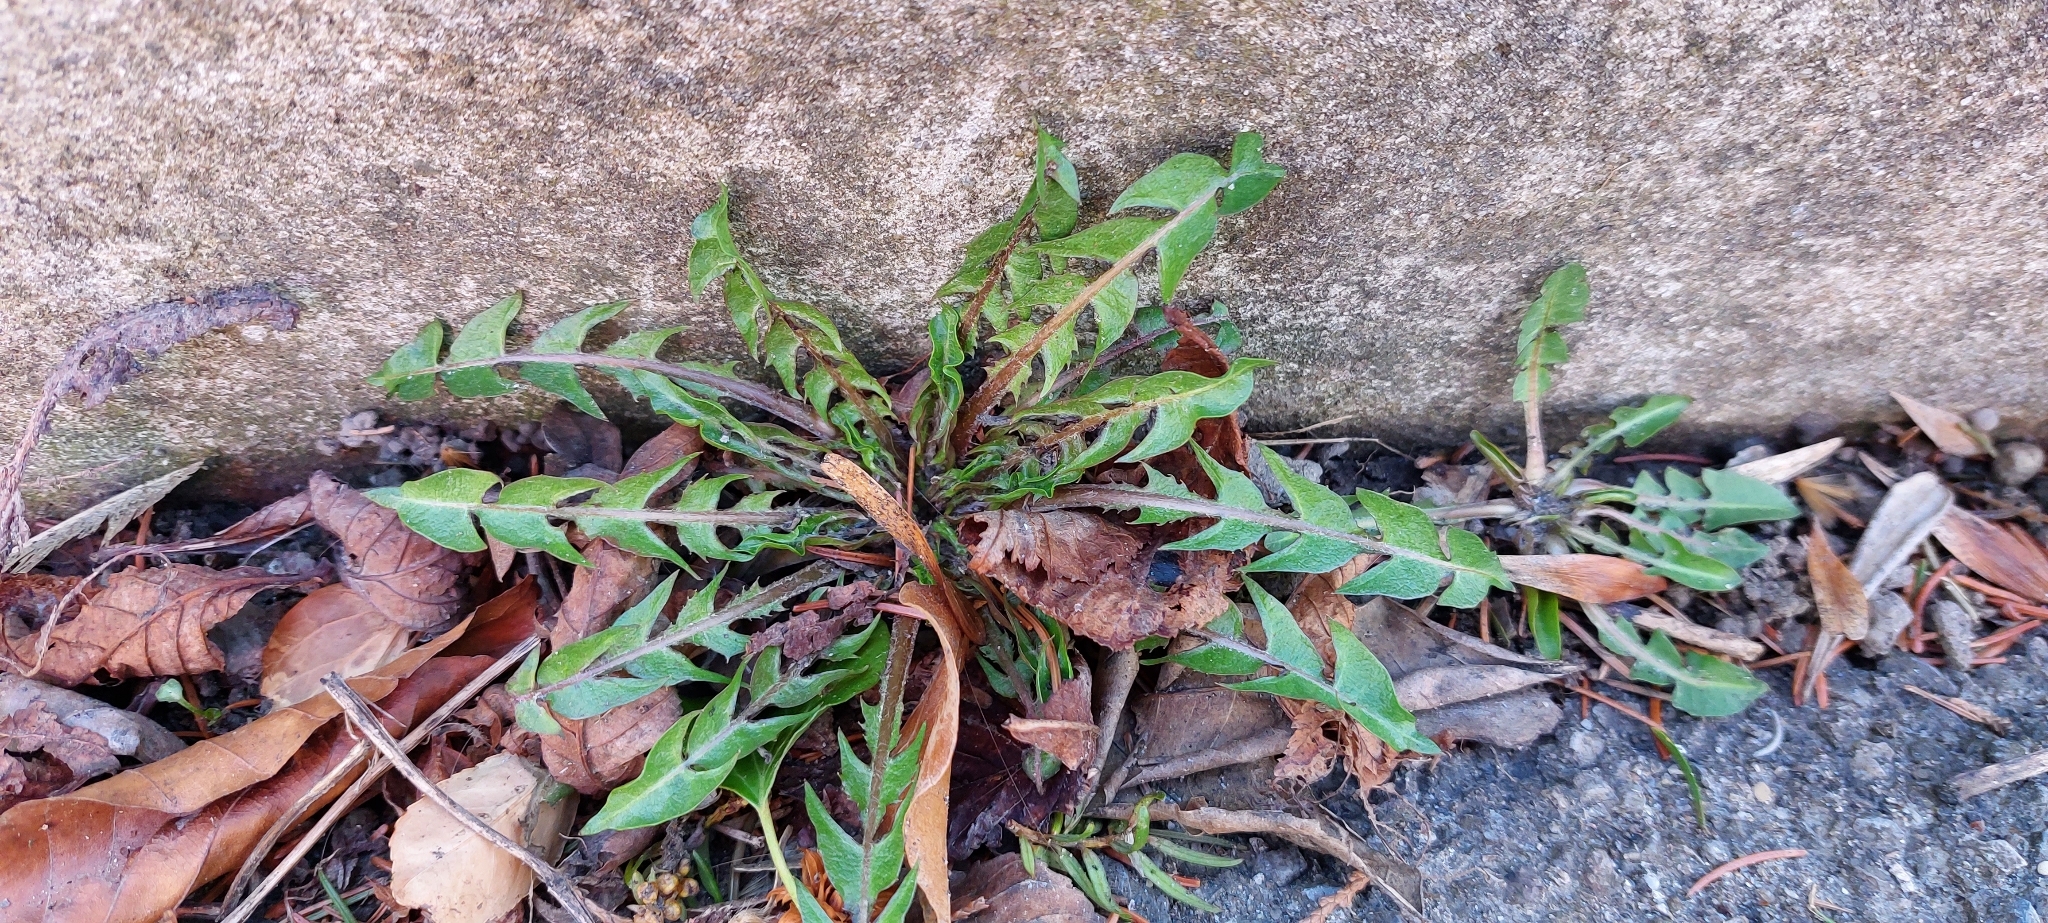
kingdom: Plantae
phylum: Tracheophyta
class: Magnoliopsida
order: Asterales
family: Asteraceae
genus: Taraxacum
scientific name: Taraxacum
